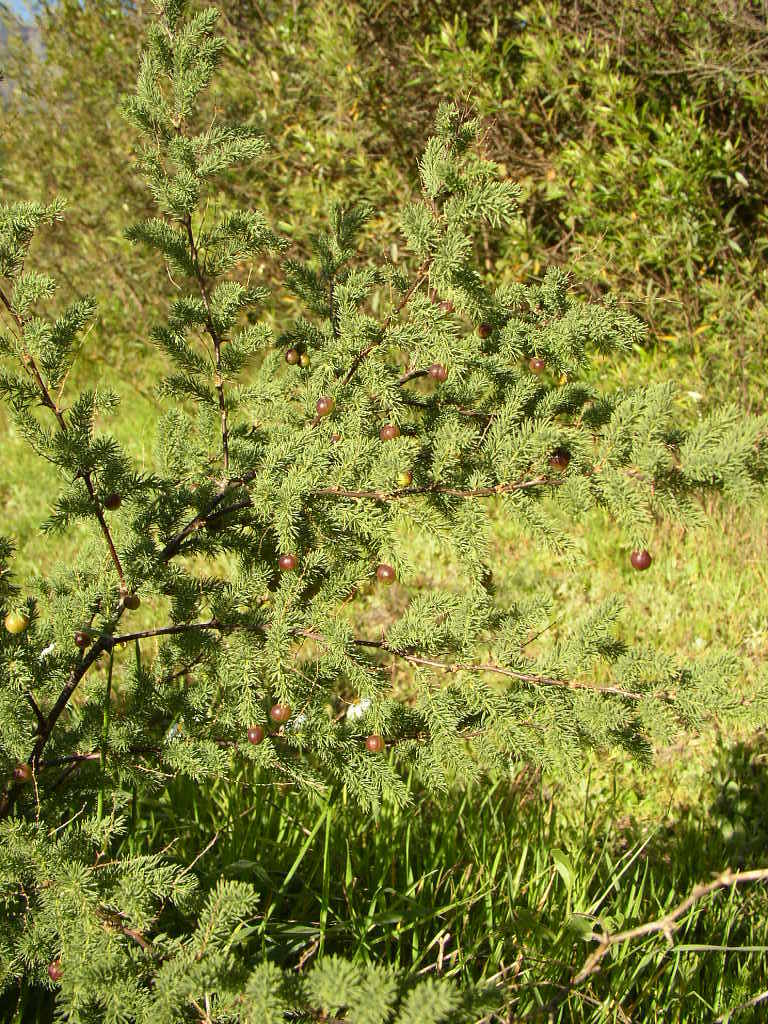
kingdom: Plantae
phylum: Tracheophyta
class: Liliopsida
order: Asparagales
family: Asparagaceae
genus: Asparagus
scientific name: Asparagus rubicundus
